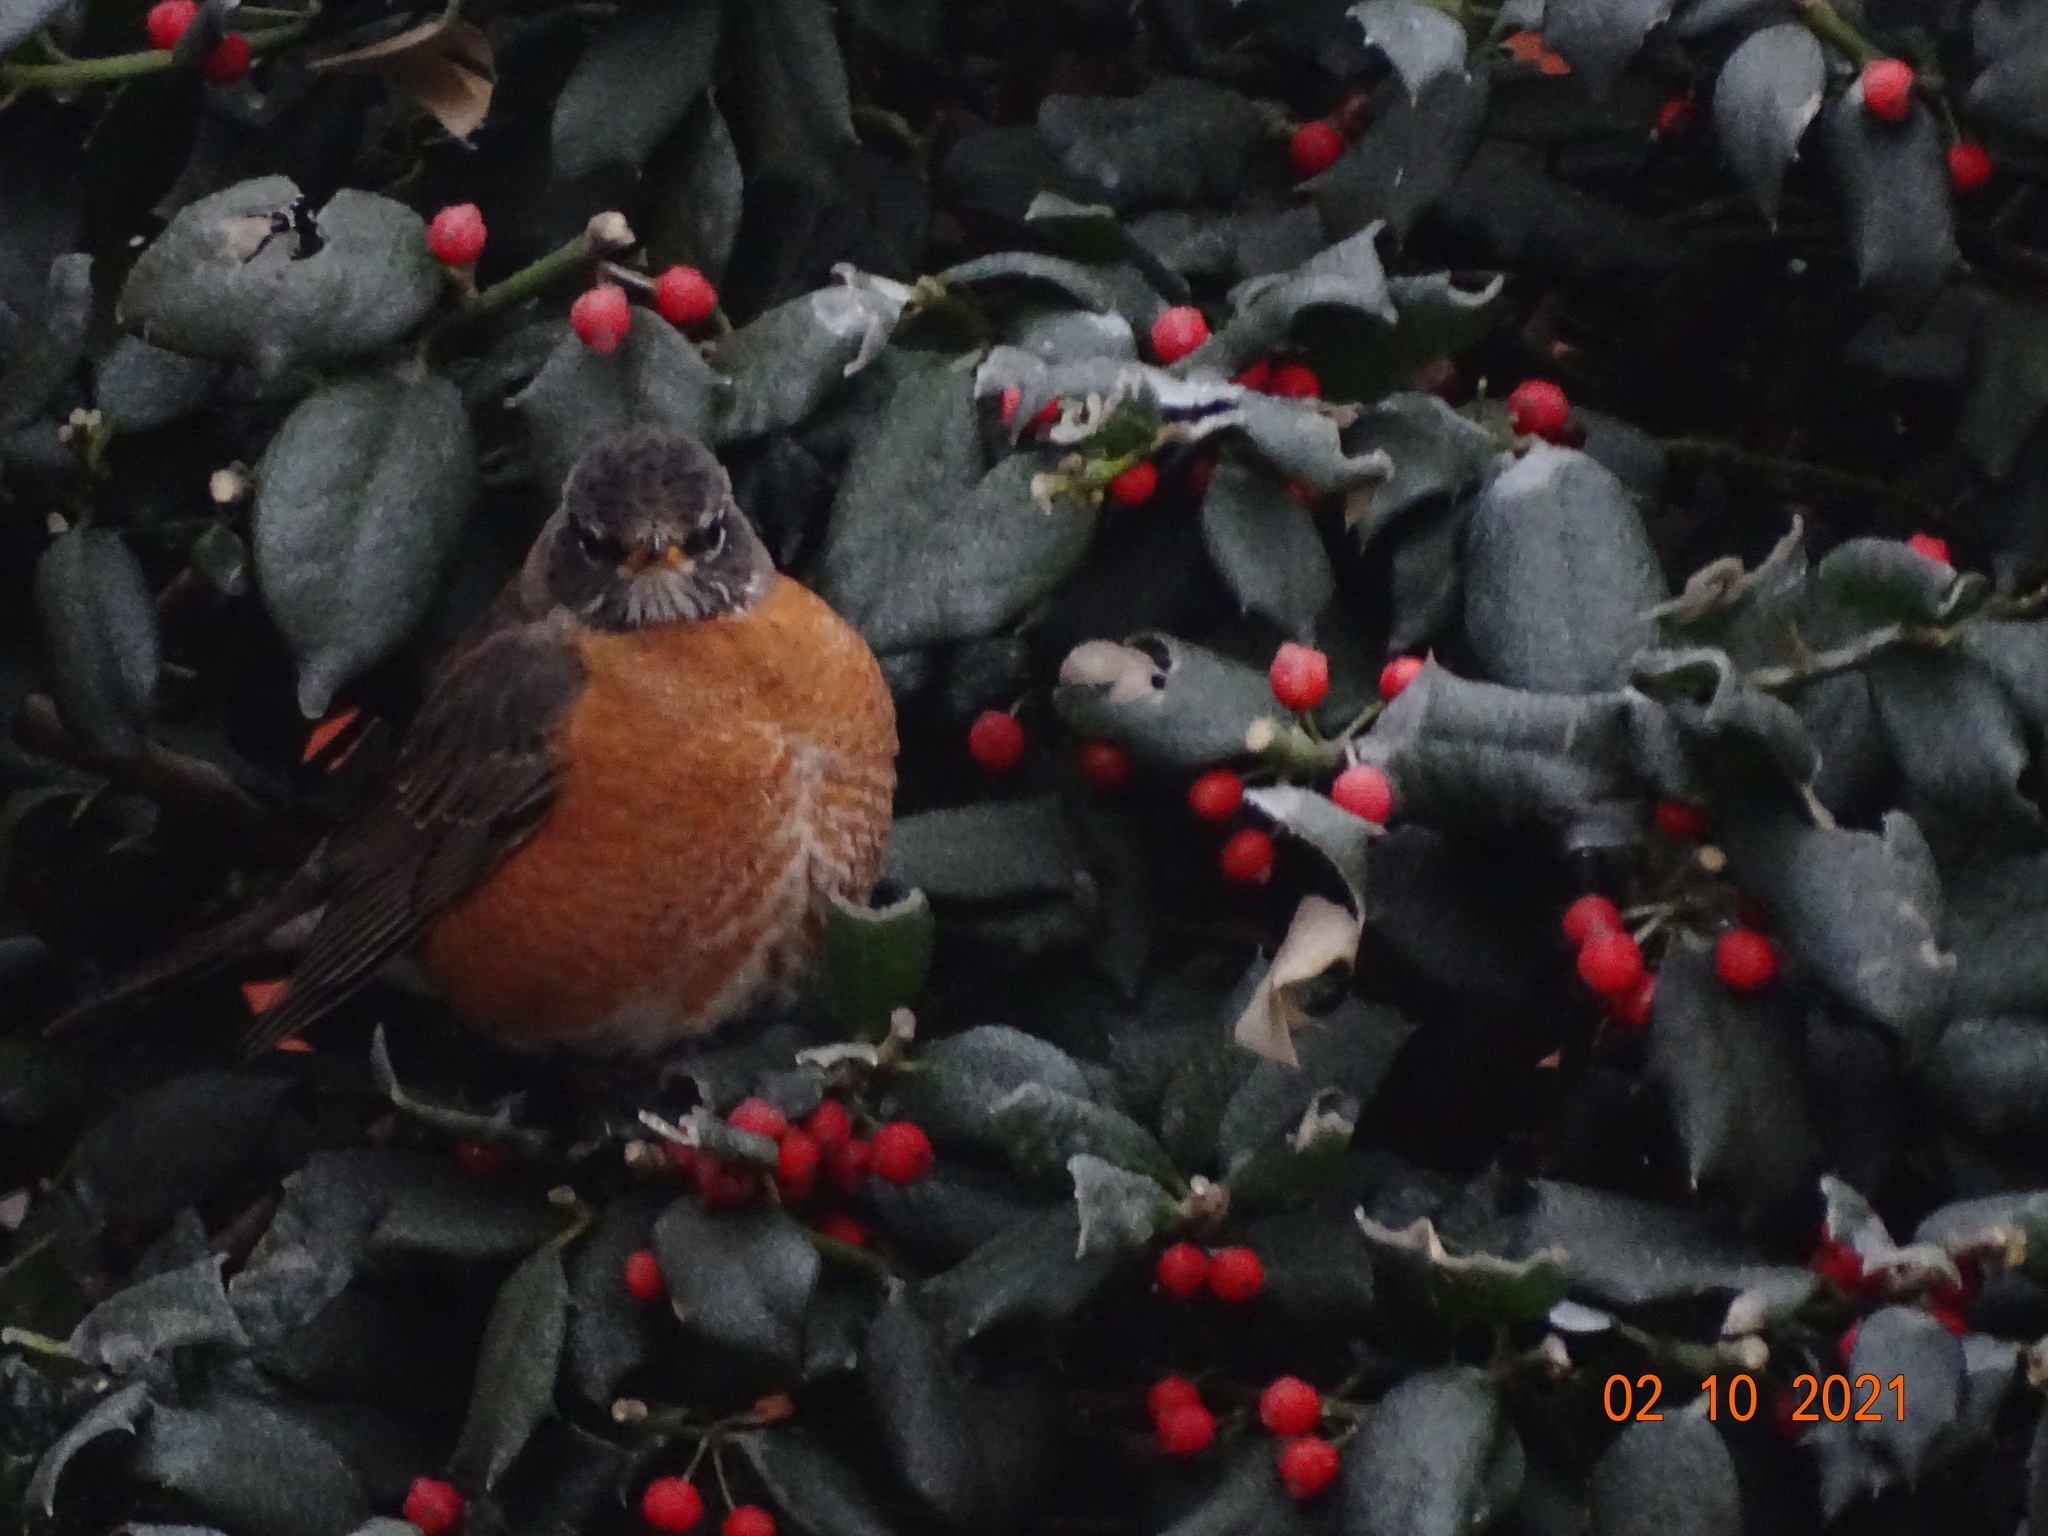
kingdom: Animalia
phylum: Chordata
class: Aves
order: Passeriformes
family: Turdidae
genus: Turdus
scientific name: Turdus migratorius
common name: American robin
